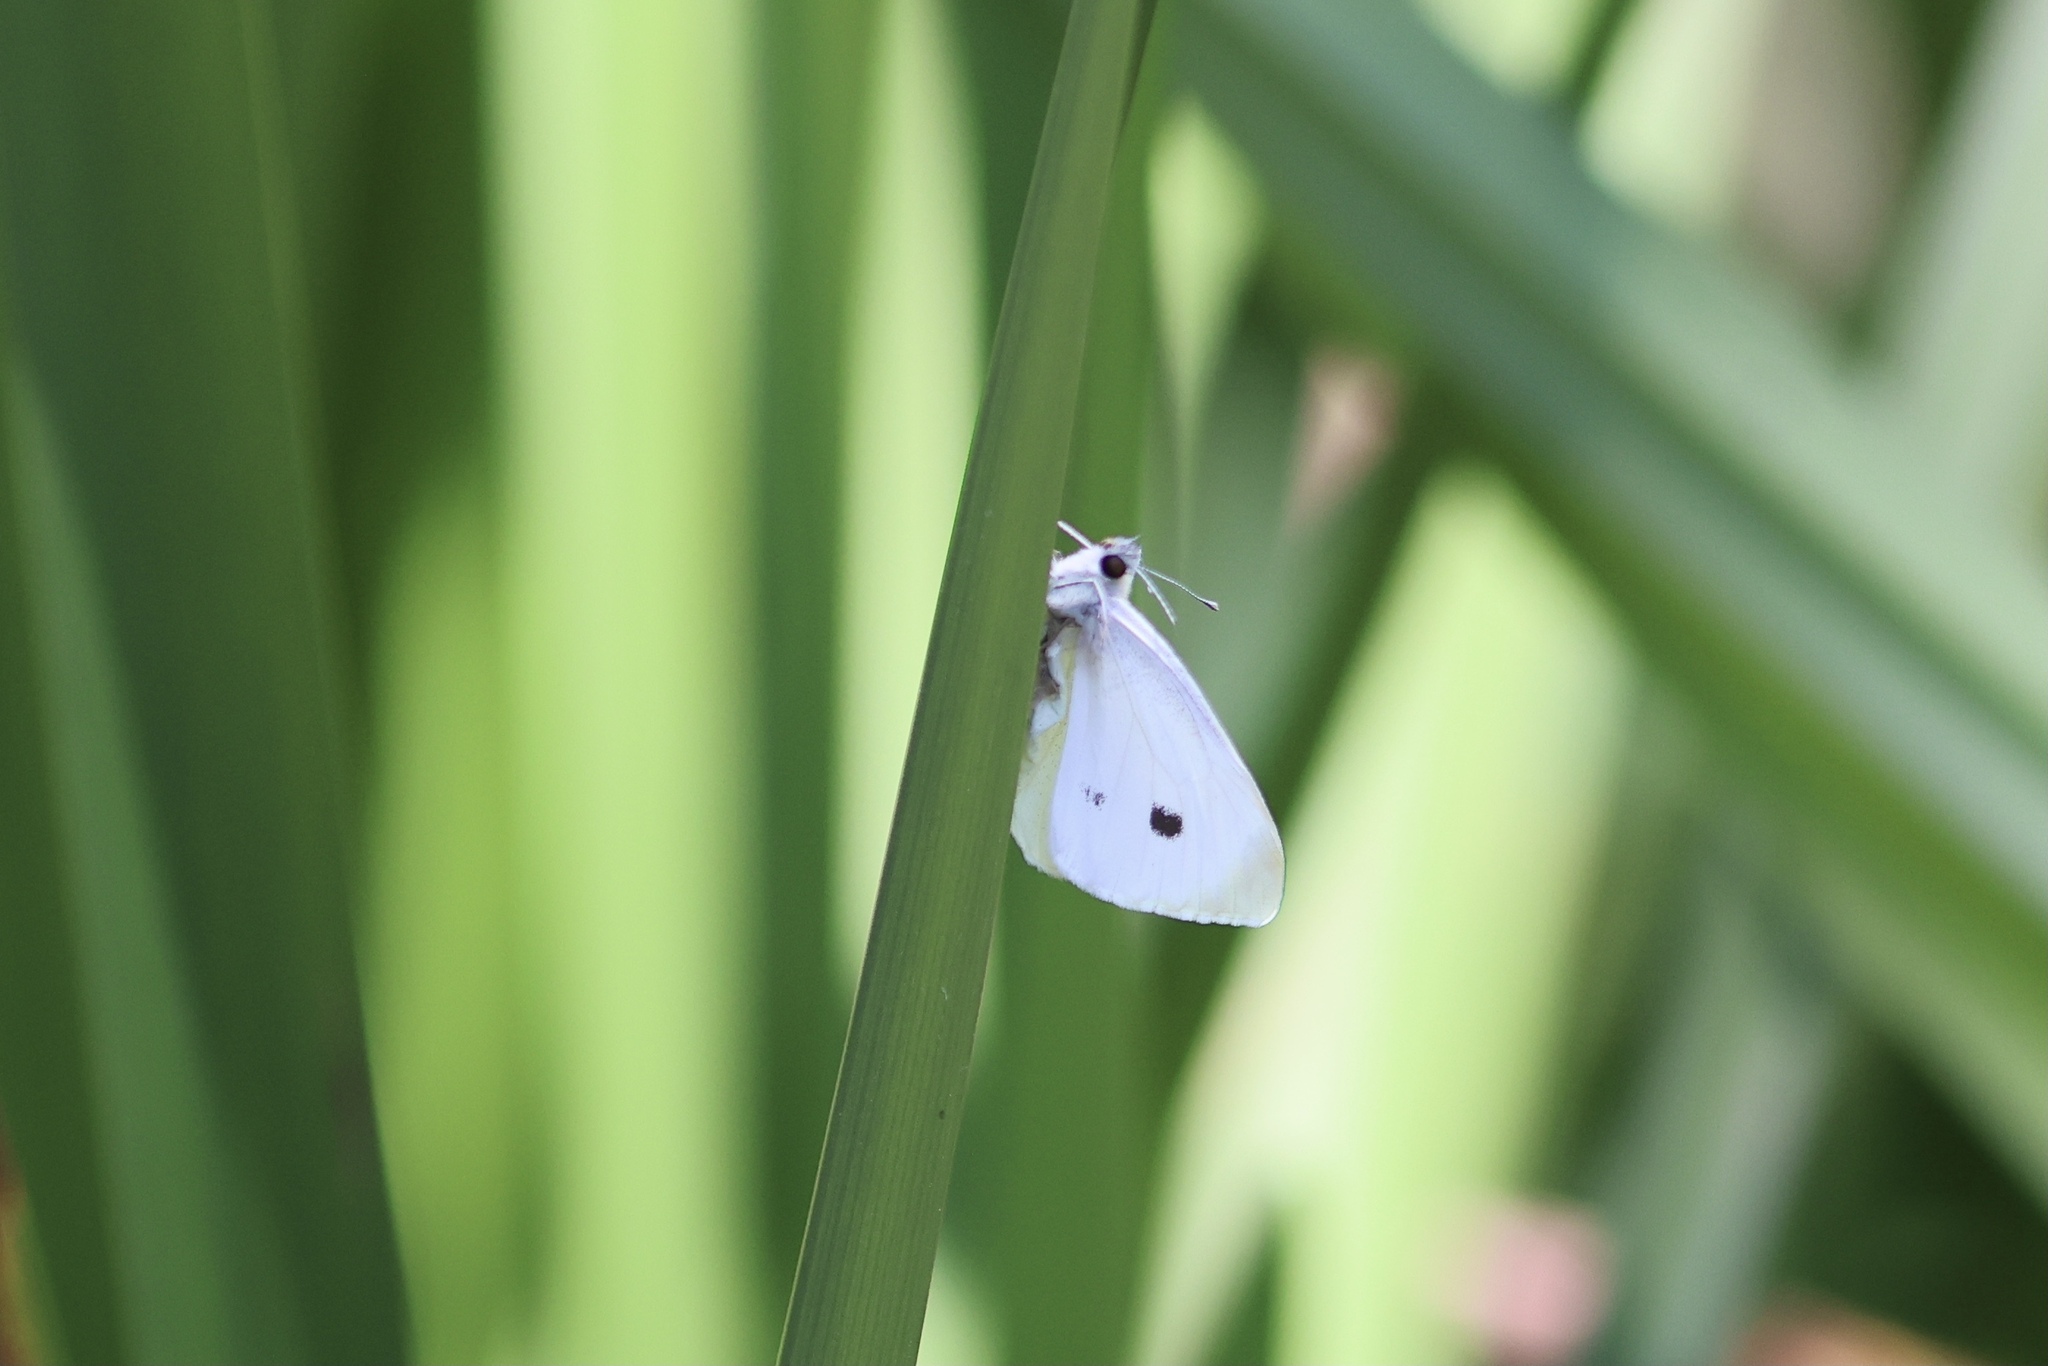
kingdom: Animalia
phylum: Arthropoda
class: Insecta
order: Lepidoptera
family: Pieridae
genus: Pieris
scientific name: Pieris rapae
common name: Small white
